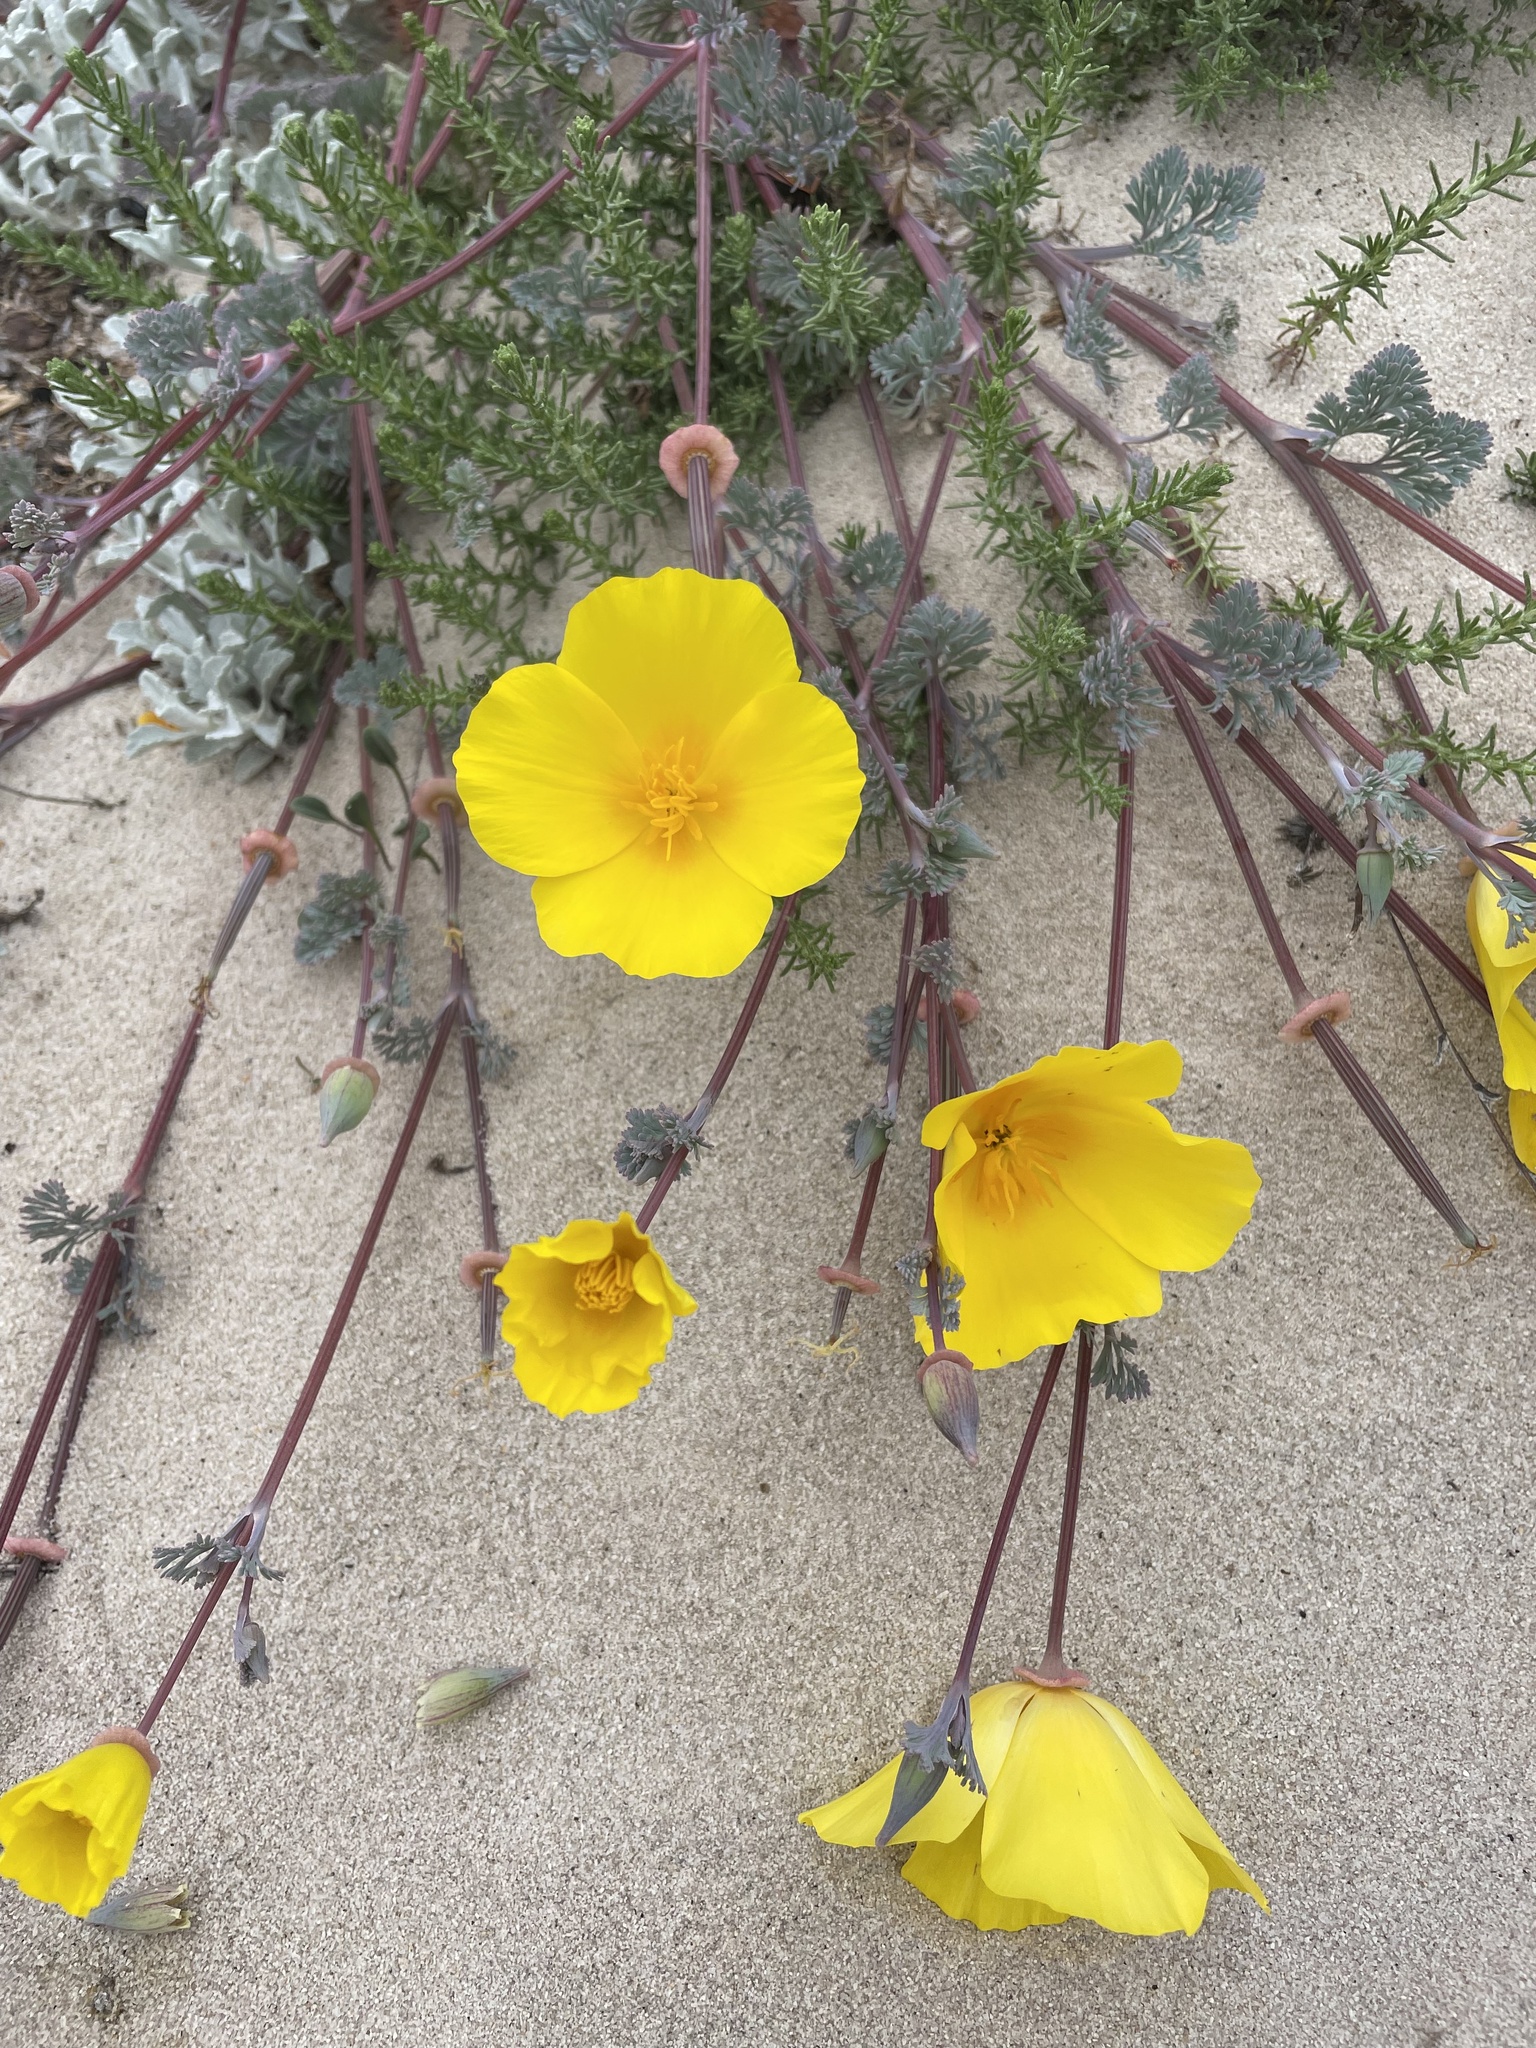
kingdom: Plantae
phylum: Tracheophyta
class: Magnoliopsida
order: Ranunculales
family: Papaveraceae
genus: Eschscholzia
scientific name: Eschscholzia californica
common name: California poppy
